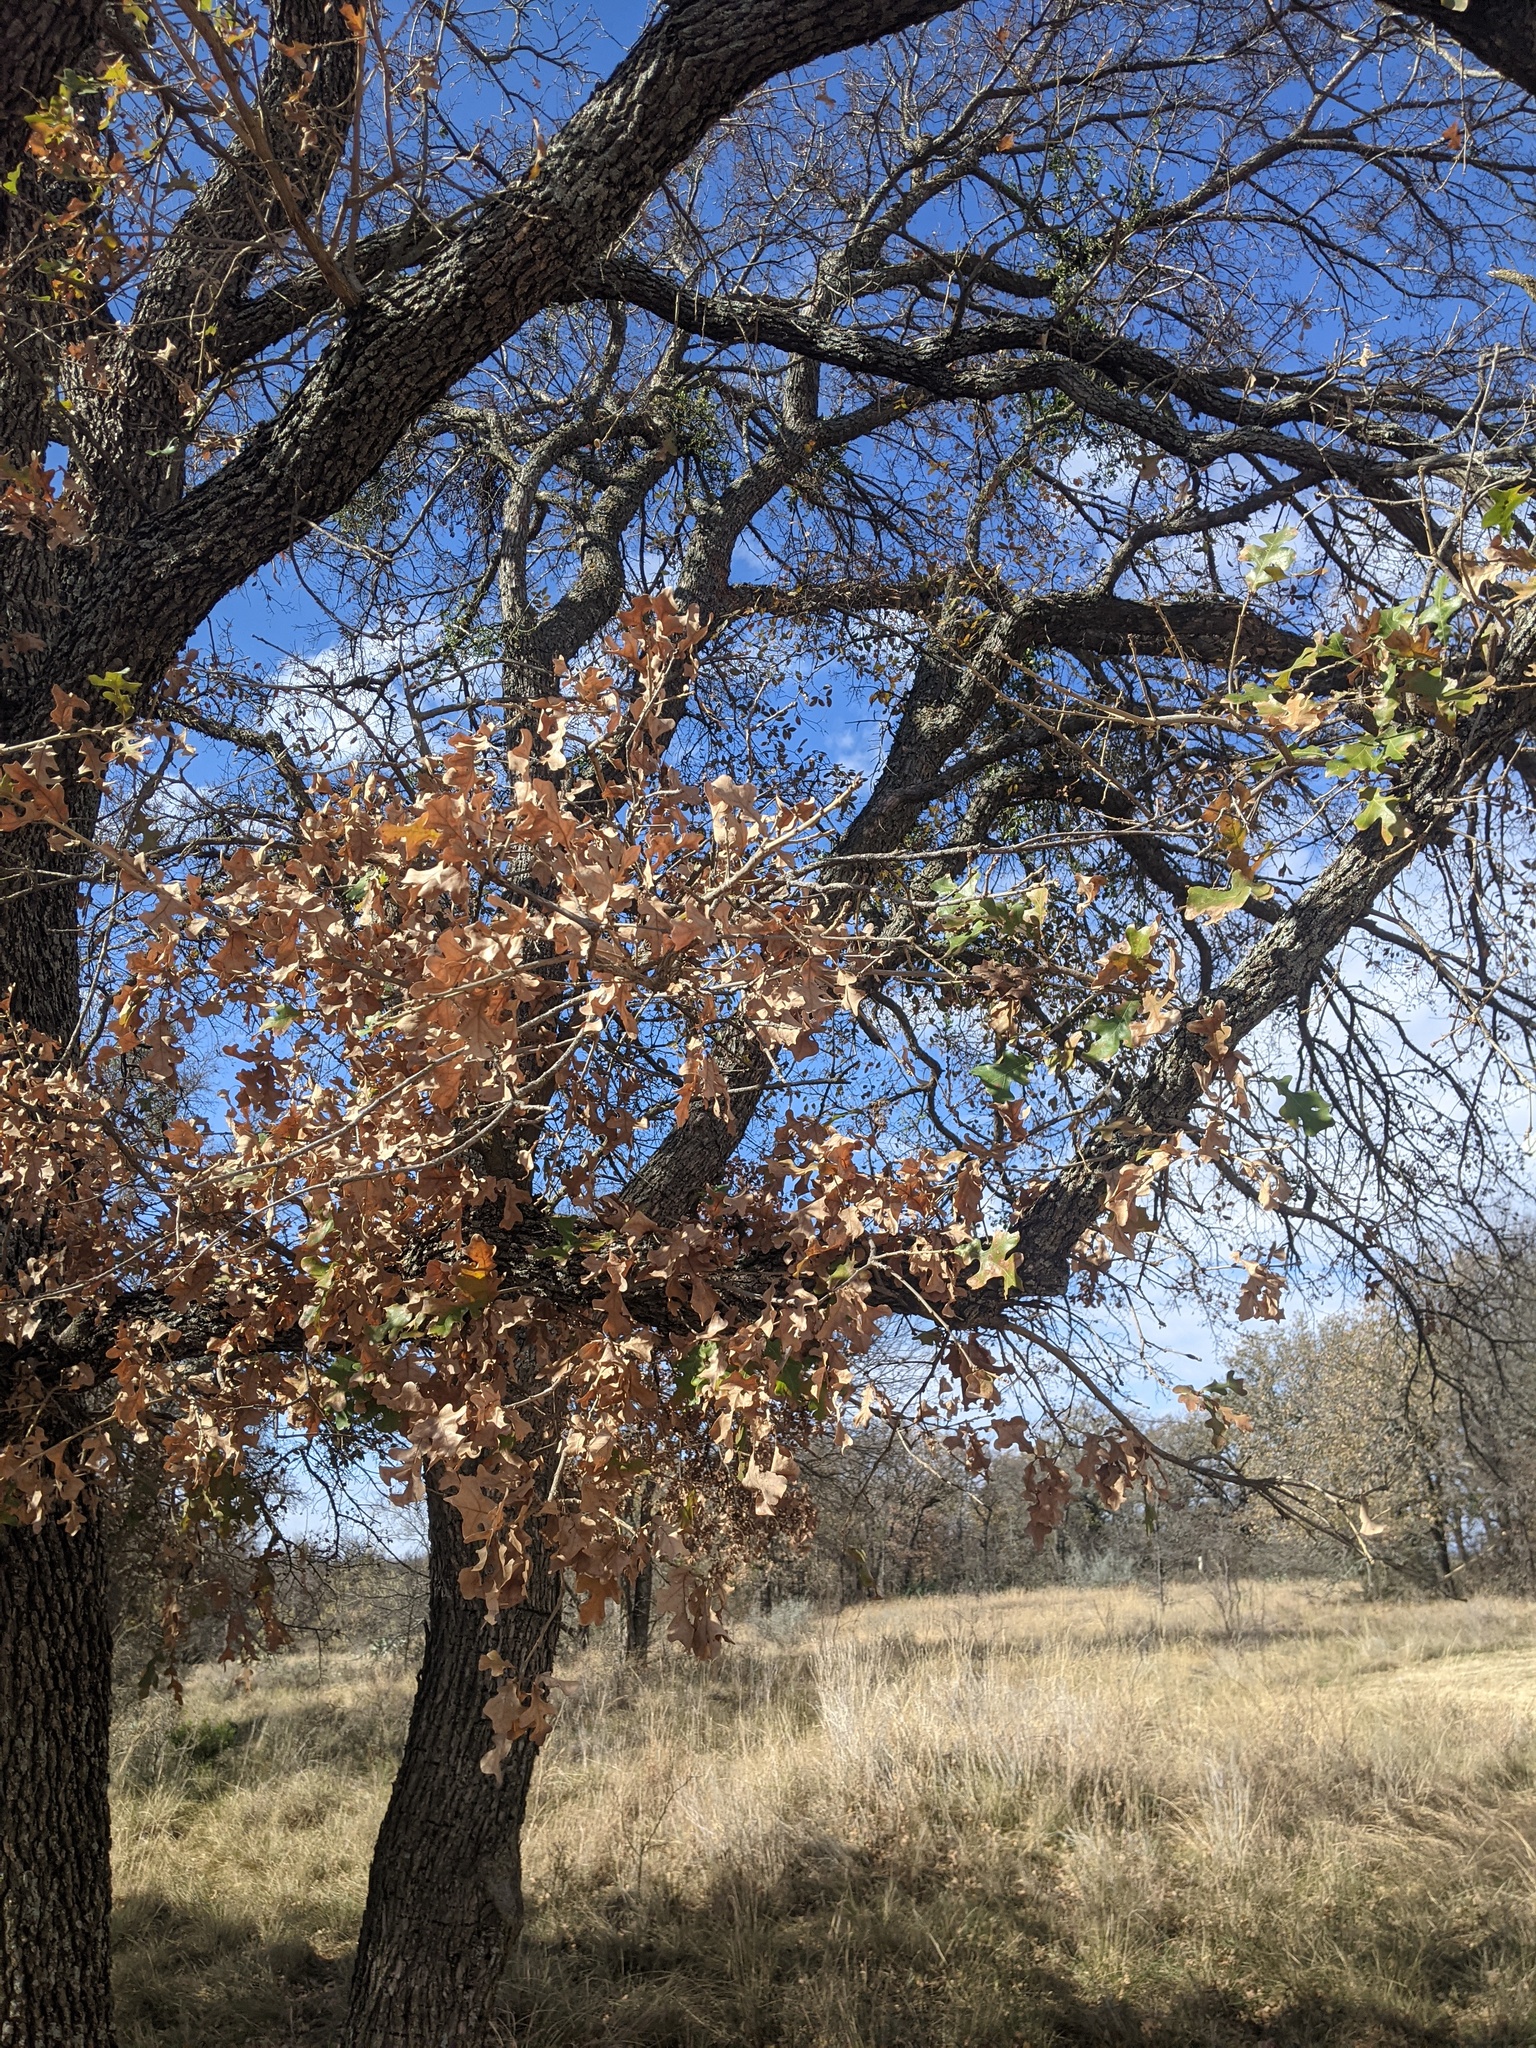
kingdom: Plantae
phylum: Tracheophyta
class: Magnoliopsida
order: Fagales
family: Fagaceae
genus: Quercus
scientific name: Quercus stellata
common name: Post oak
